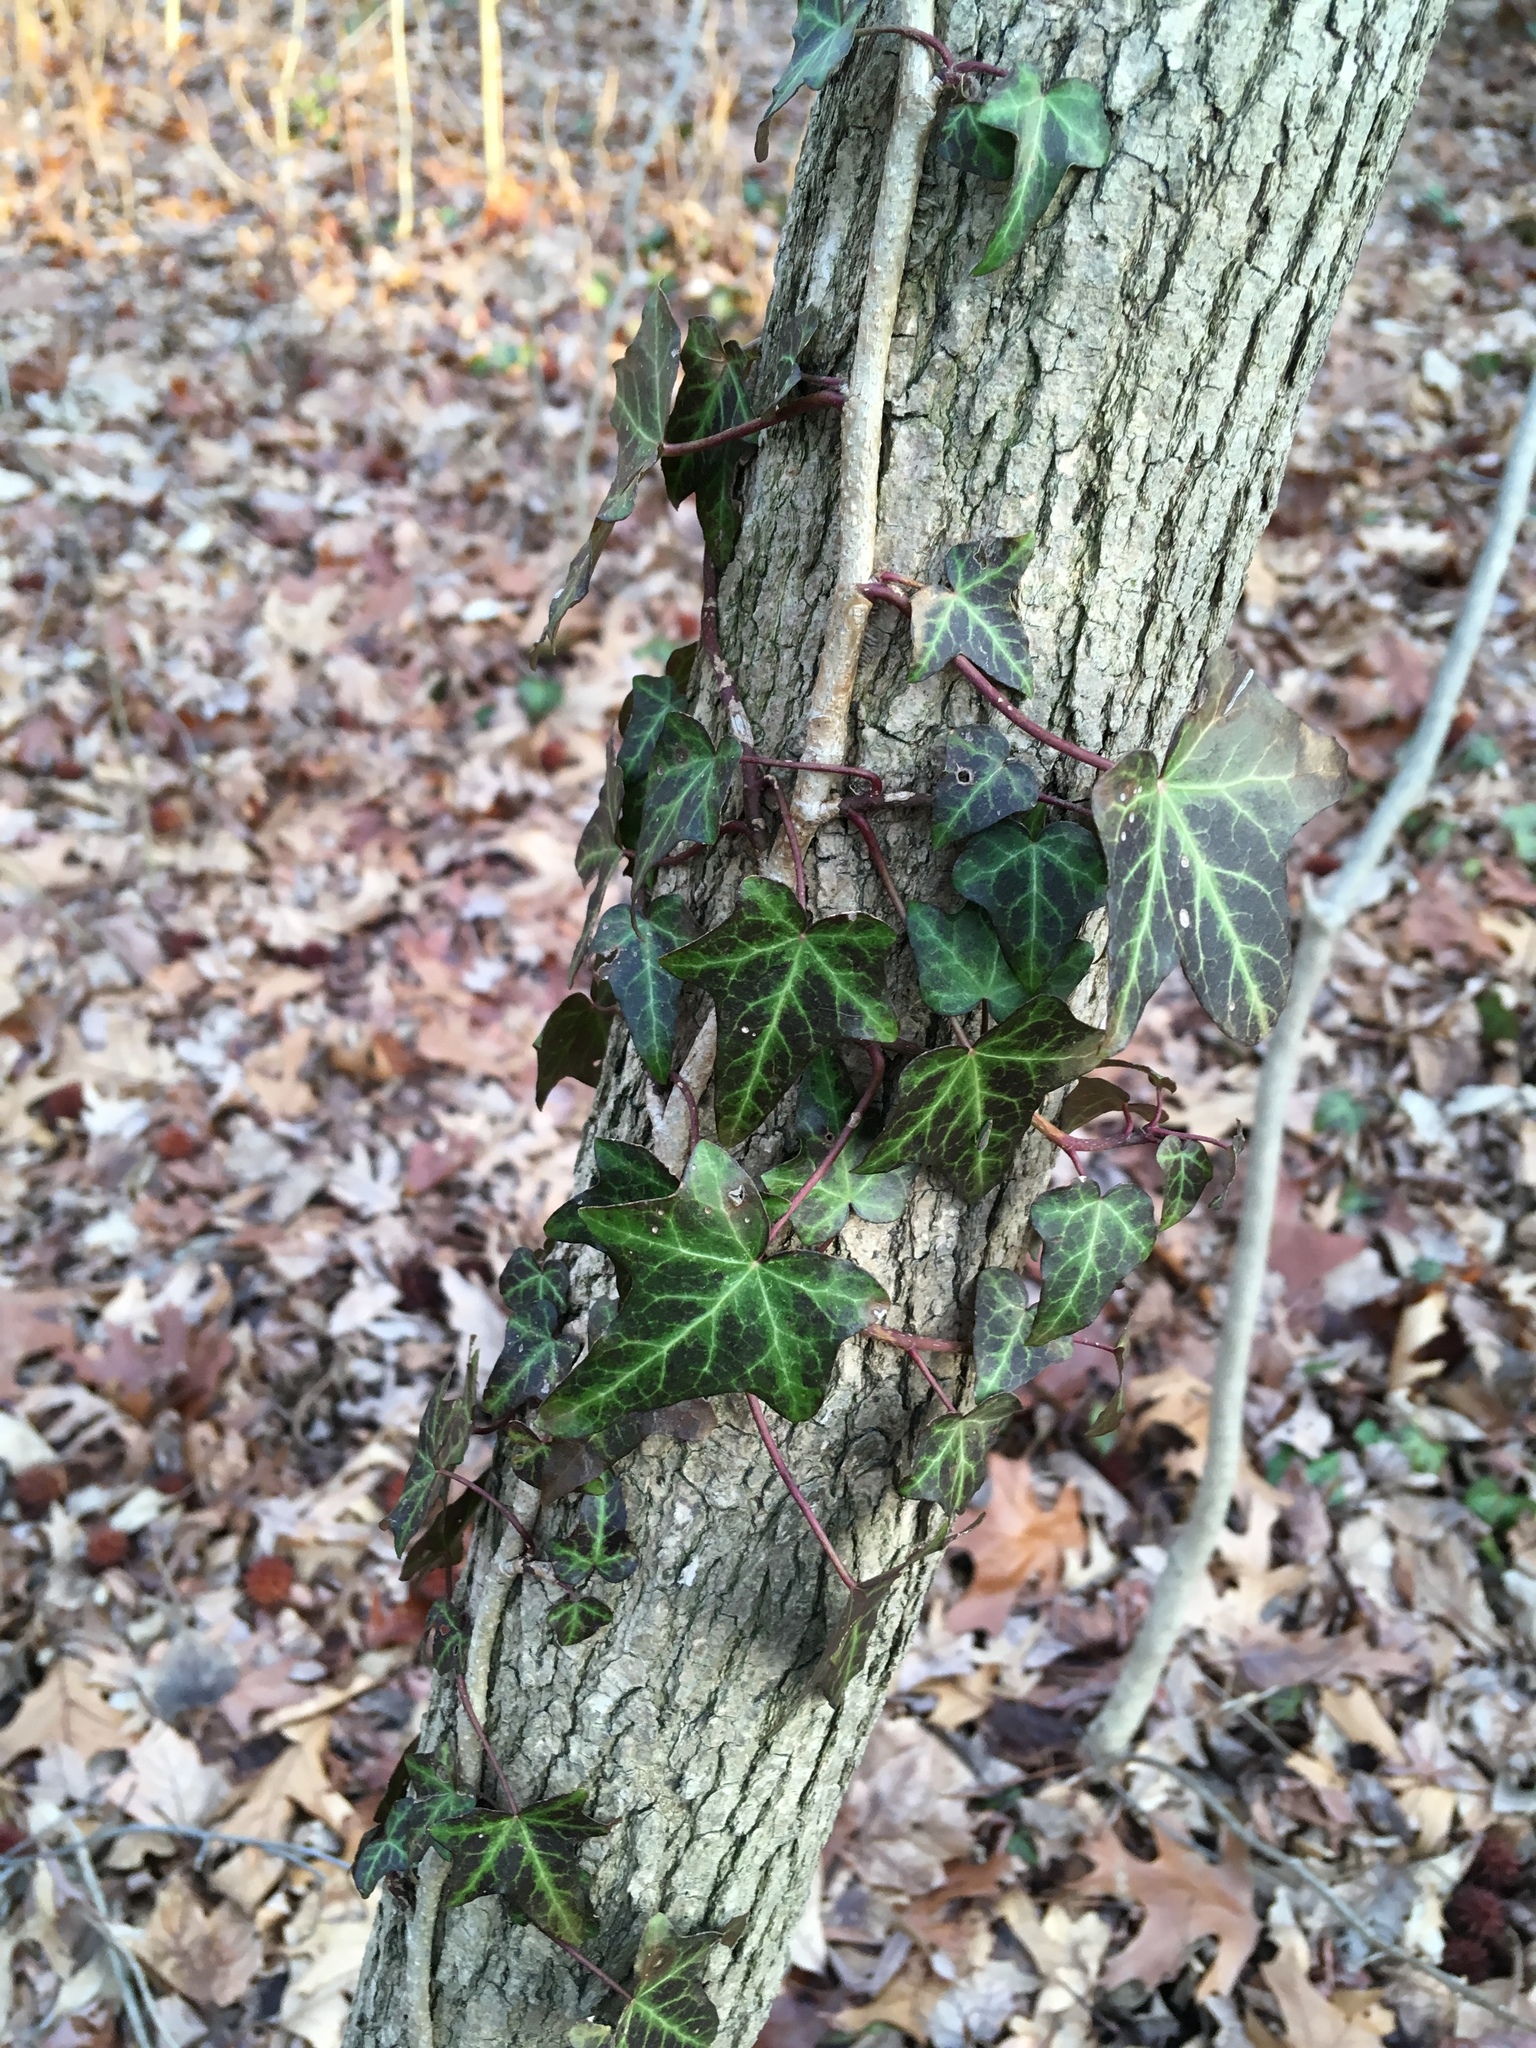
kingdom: Plantae
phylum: Tracheophyta
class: Magnoliopsida
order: Apiales
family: Araliaceae
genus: Hedera
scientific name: Hedera helix
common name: Ivy
